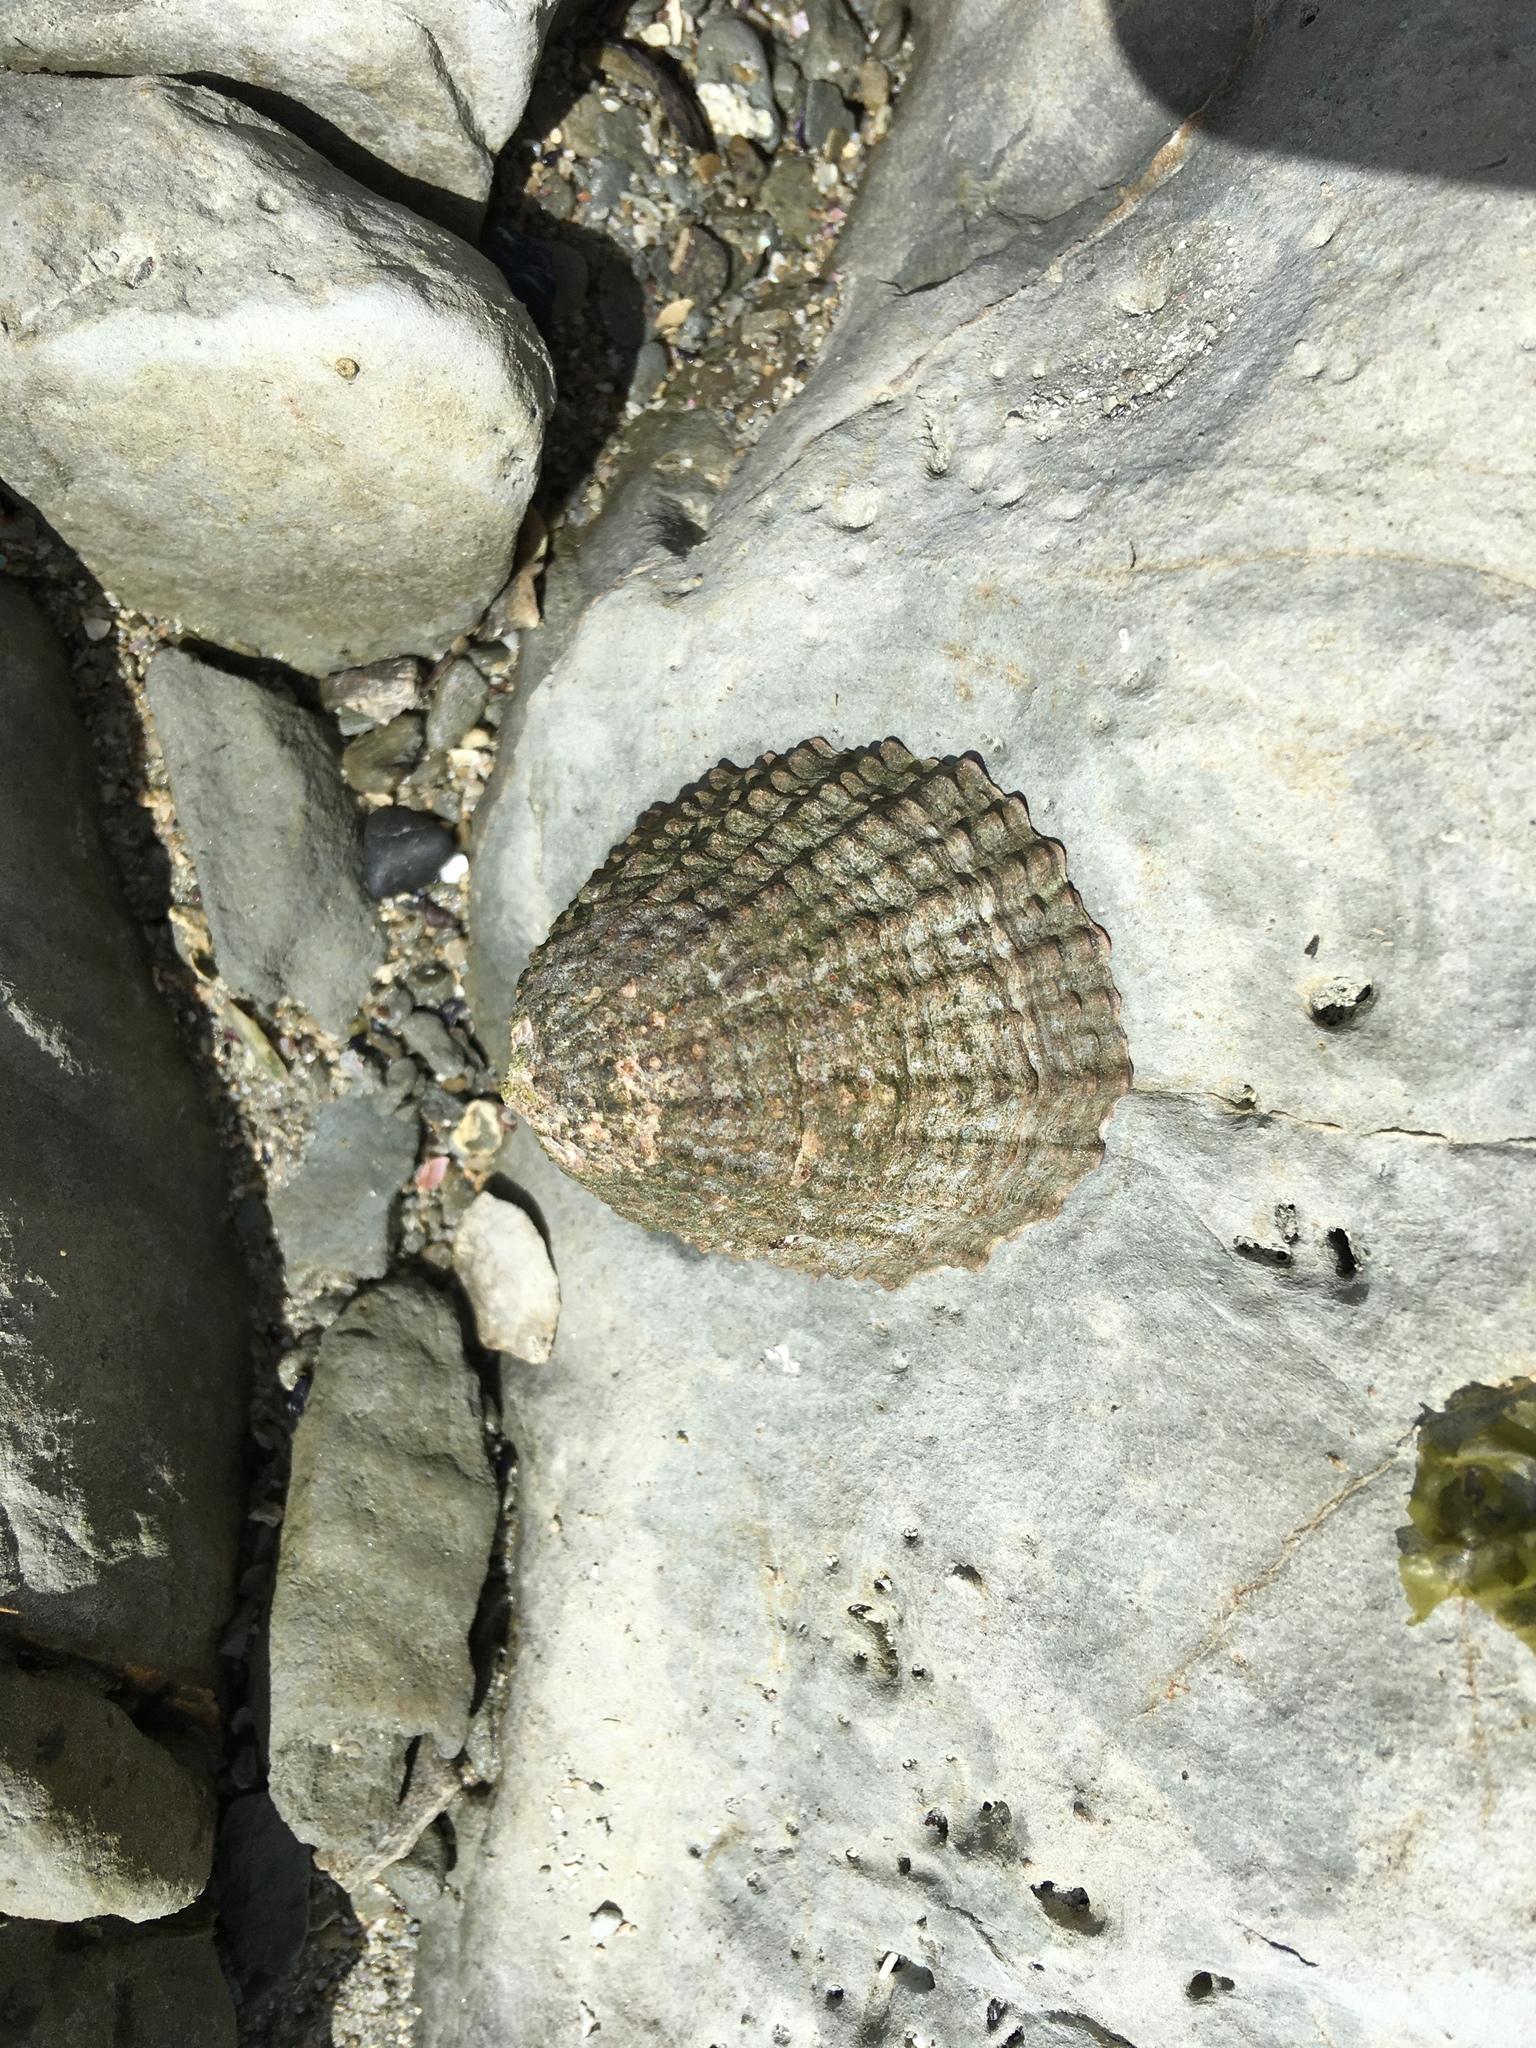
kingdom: Animalia
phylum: Mollusca
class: Gastropoda
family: Nacellidae
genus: Cellana
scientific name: Cellana denticulata
